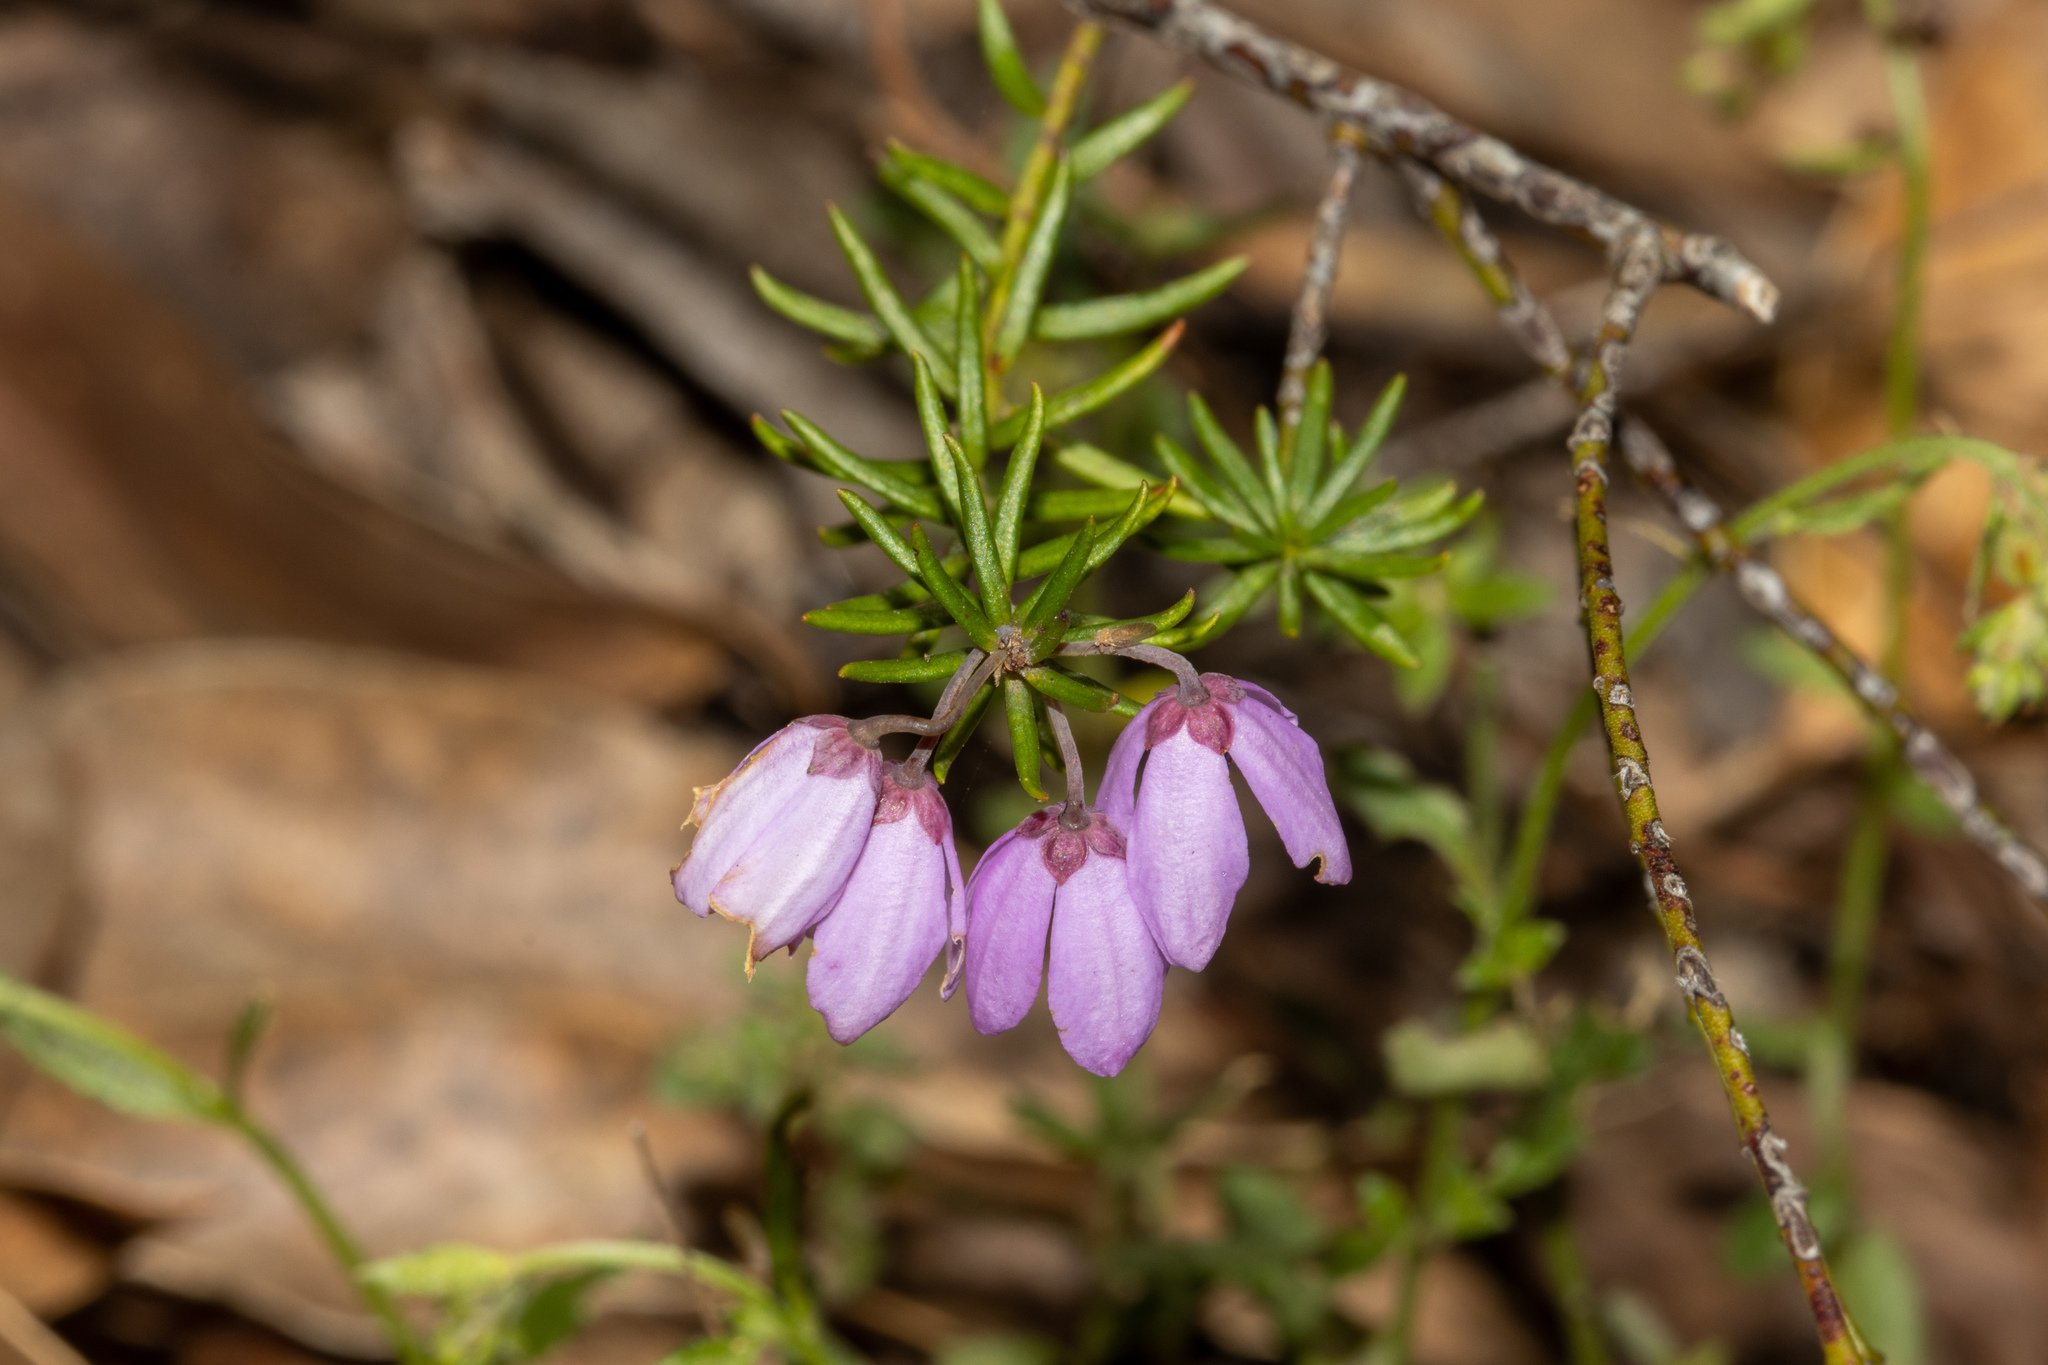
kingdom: Plantae
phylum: Tracheophyta
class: Magnoliopsida
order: Oxalidales
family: Elaeocarpaceae
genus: Tetratheca
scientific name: Tetratheca pilosa
